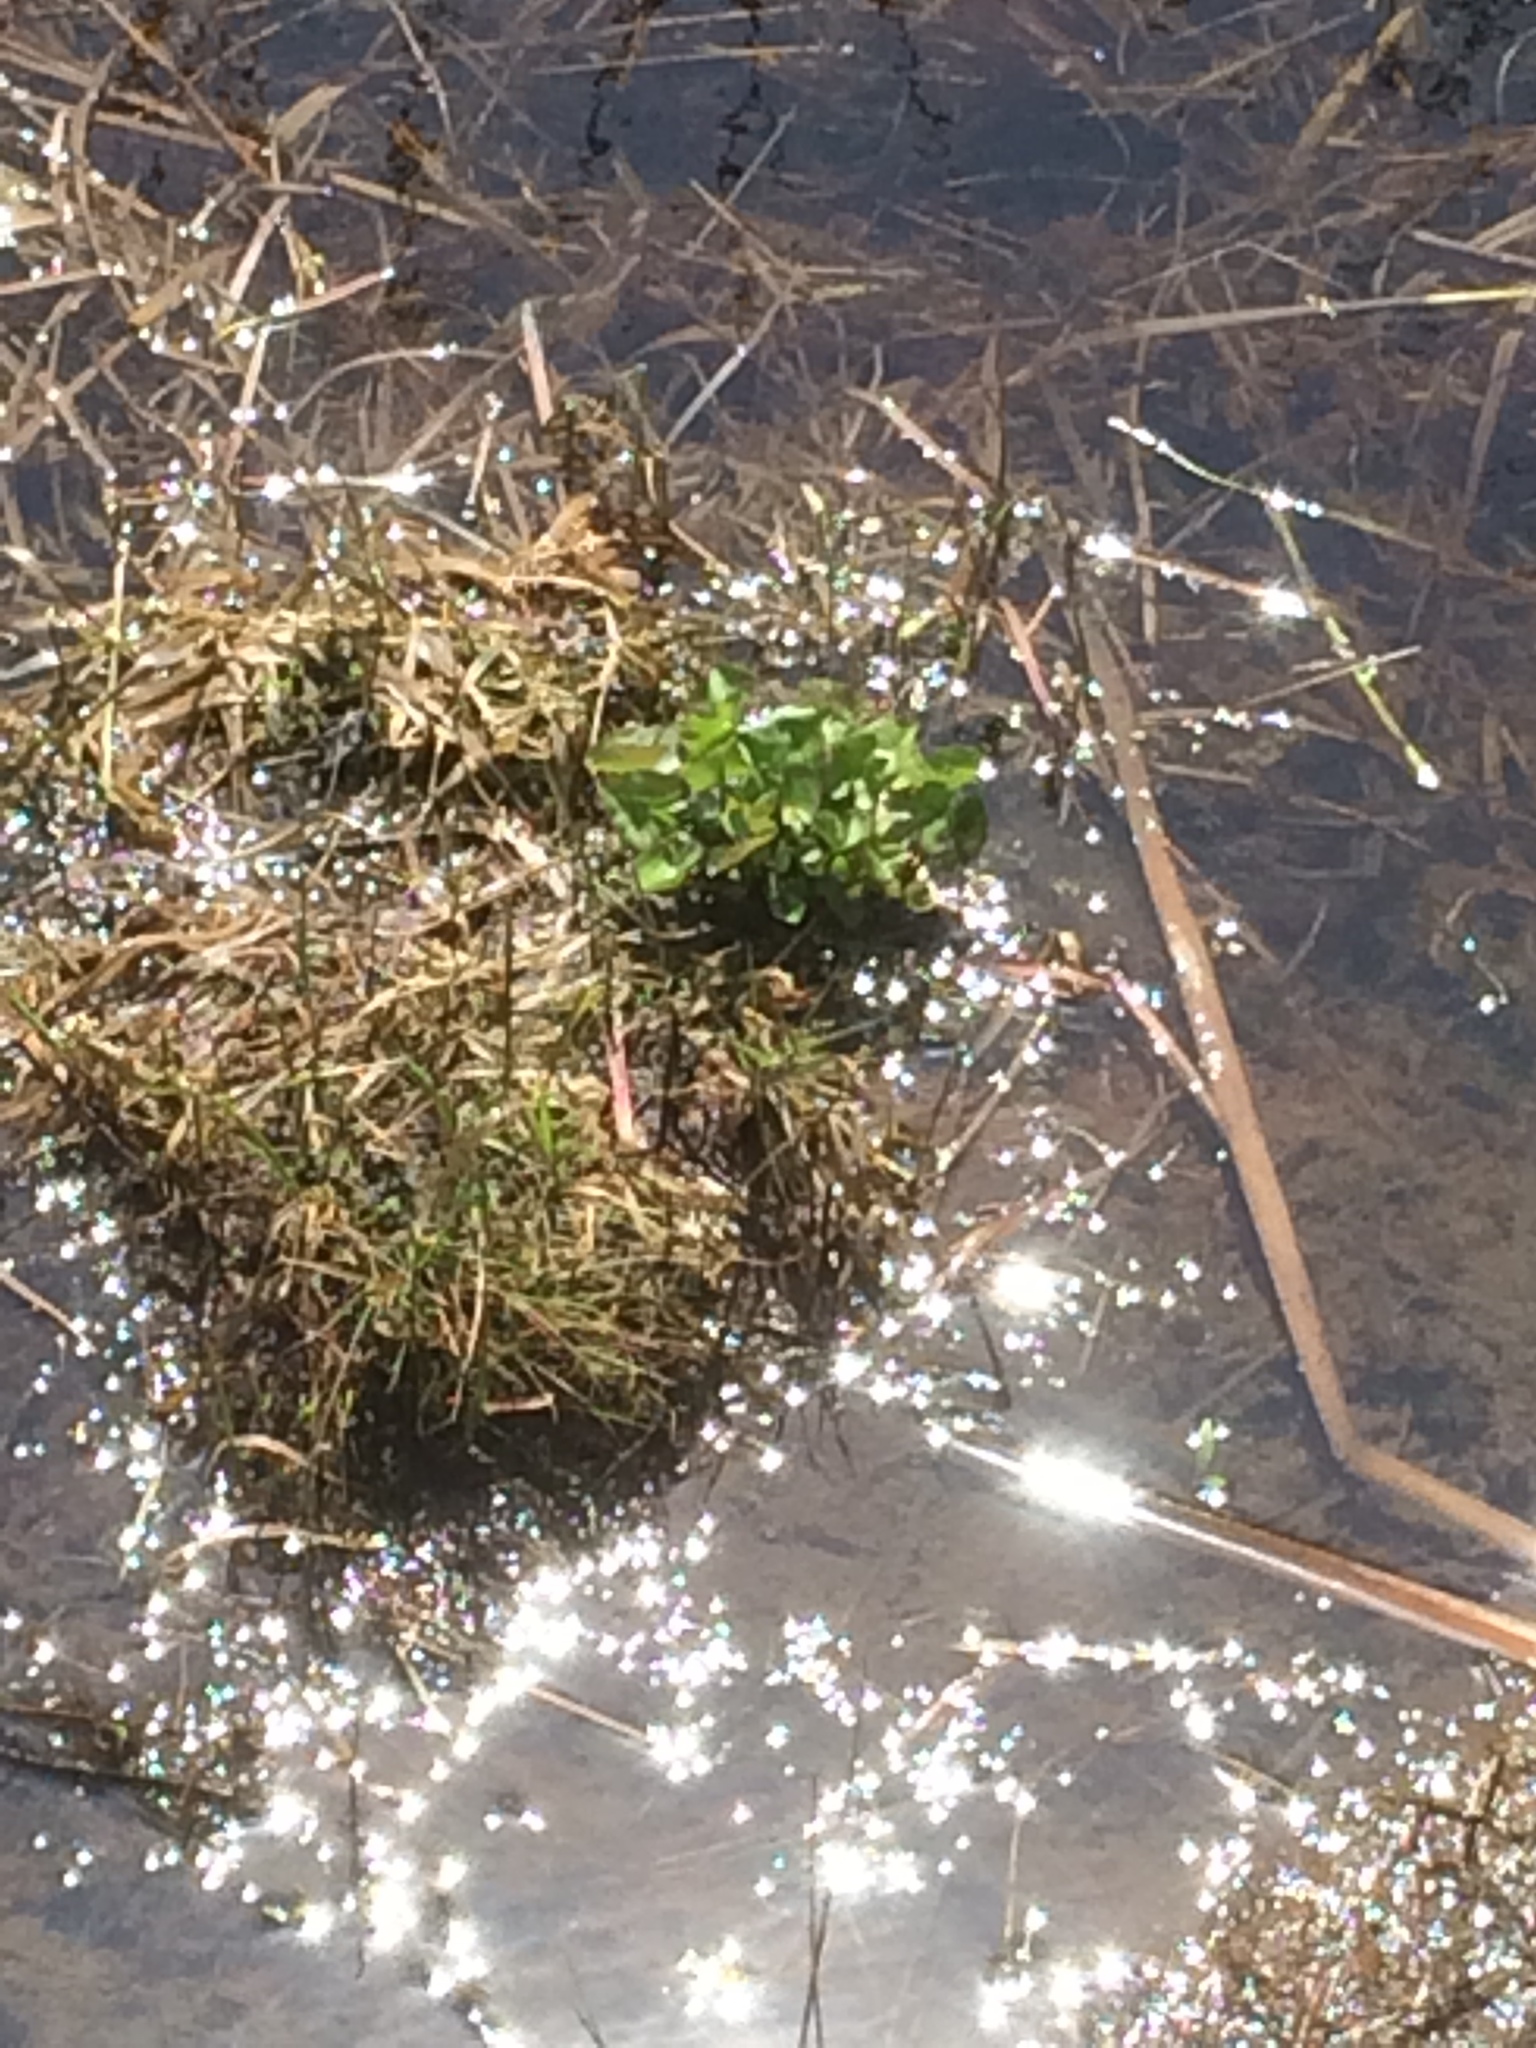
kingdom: Plantae
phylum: Tracheophyta
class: Magnoliopsida
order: Ranunculales
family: Ranunculaceae
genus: Caltha
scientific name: Caltha palustris
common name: Marsh marigold
